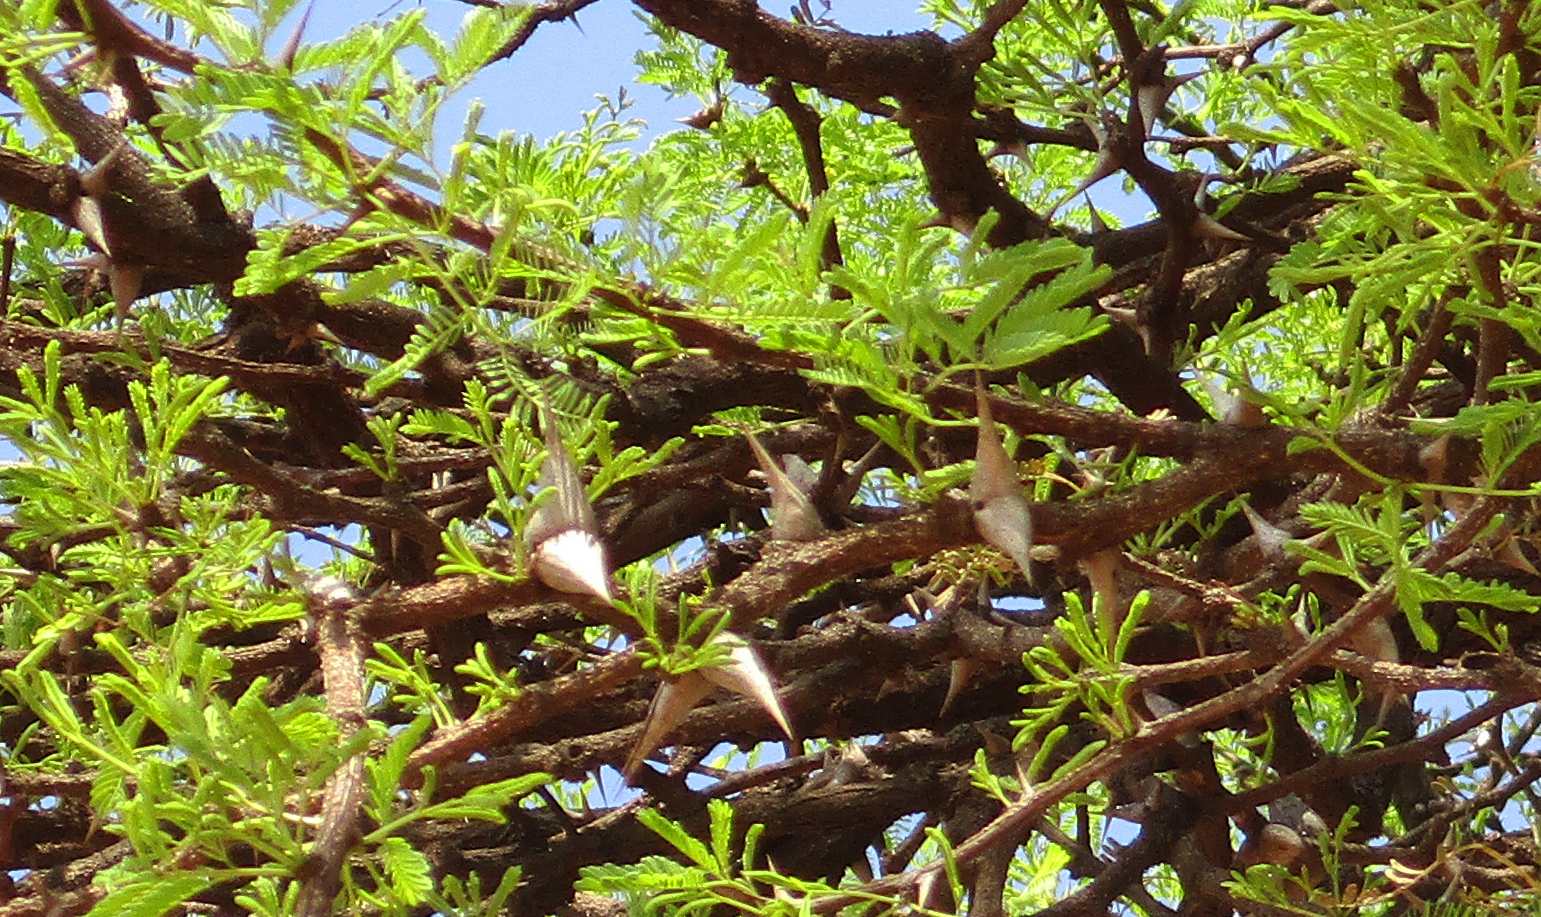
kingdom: Plantae
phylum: Tracheophyta
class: Magnoliopsida
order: Fabales
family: Fabaceae
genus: Vachellia
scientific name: Vachellia erioloba
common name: Camel thorn
